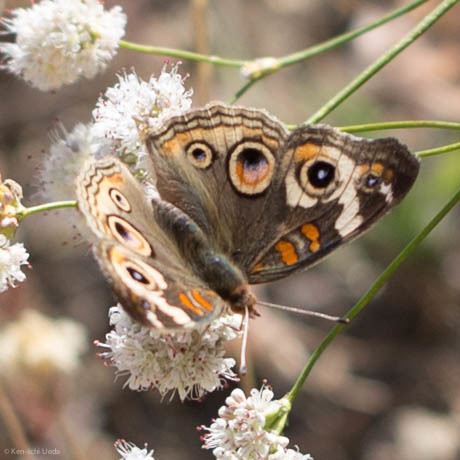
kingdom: Animalia
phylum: Arthropoda
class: Insecta
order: Lepidoptera
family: Nymphalidae
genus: Junonia
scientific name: Junonia grisea
